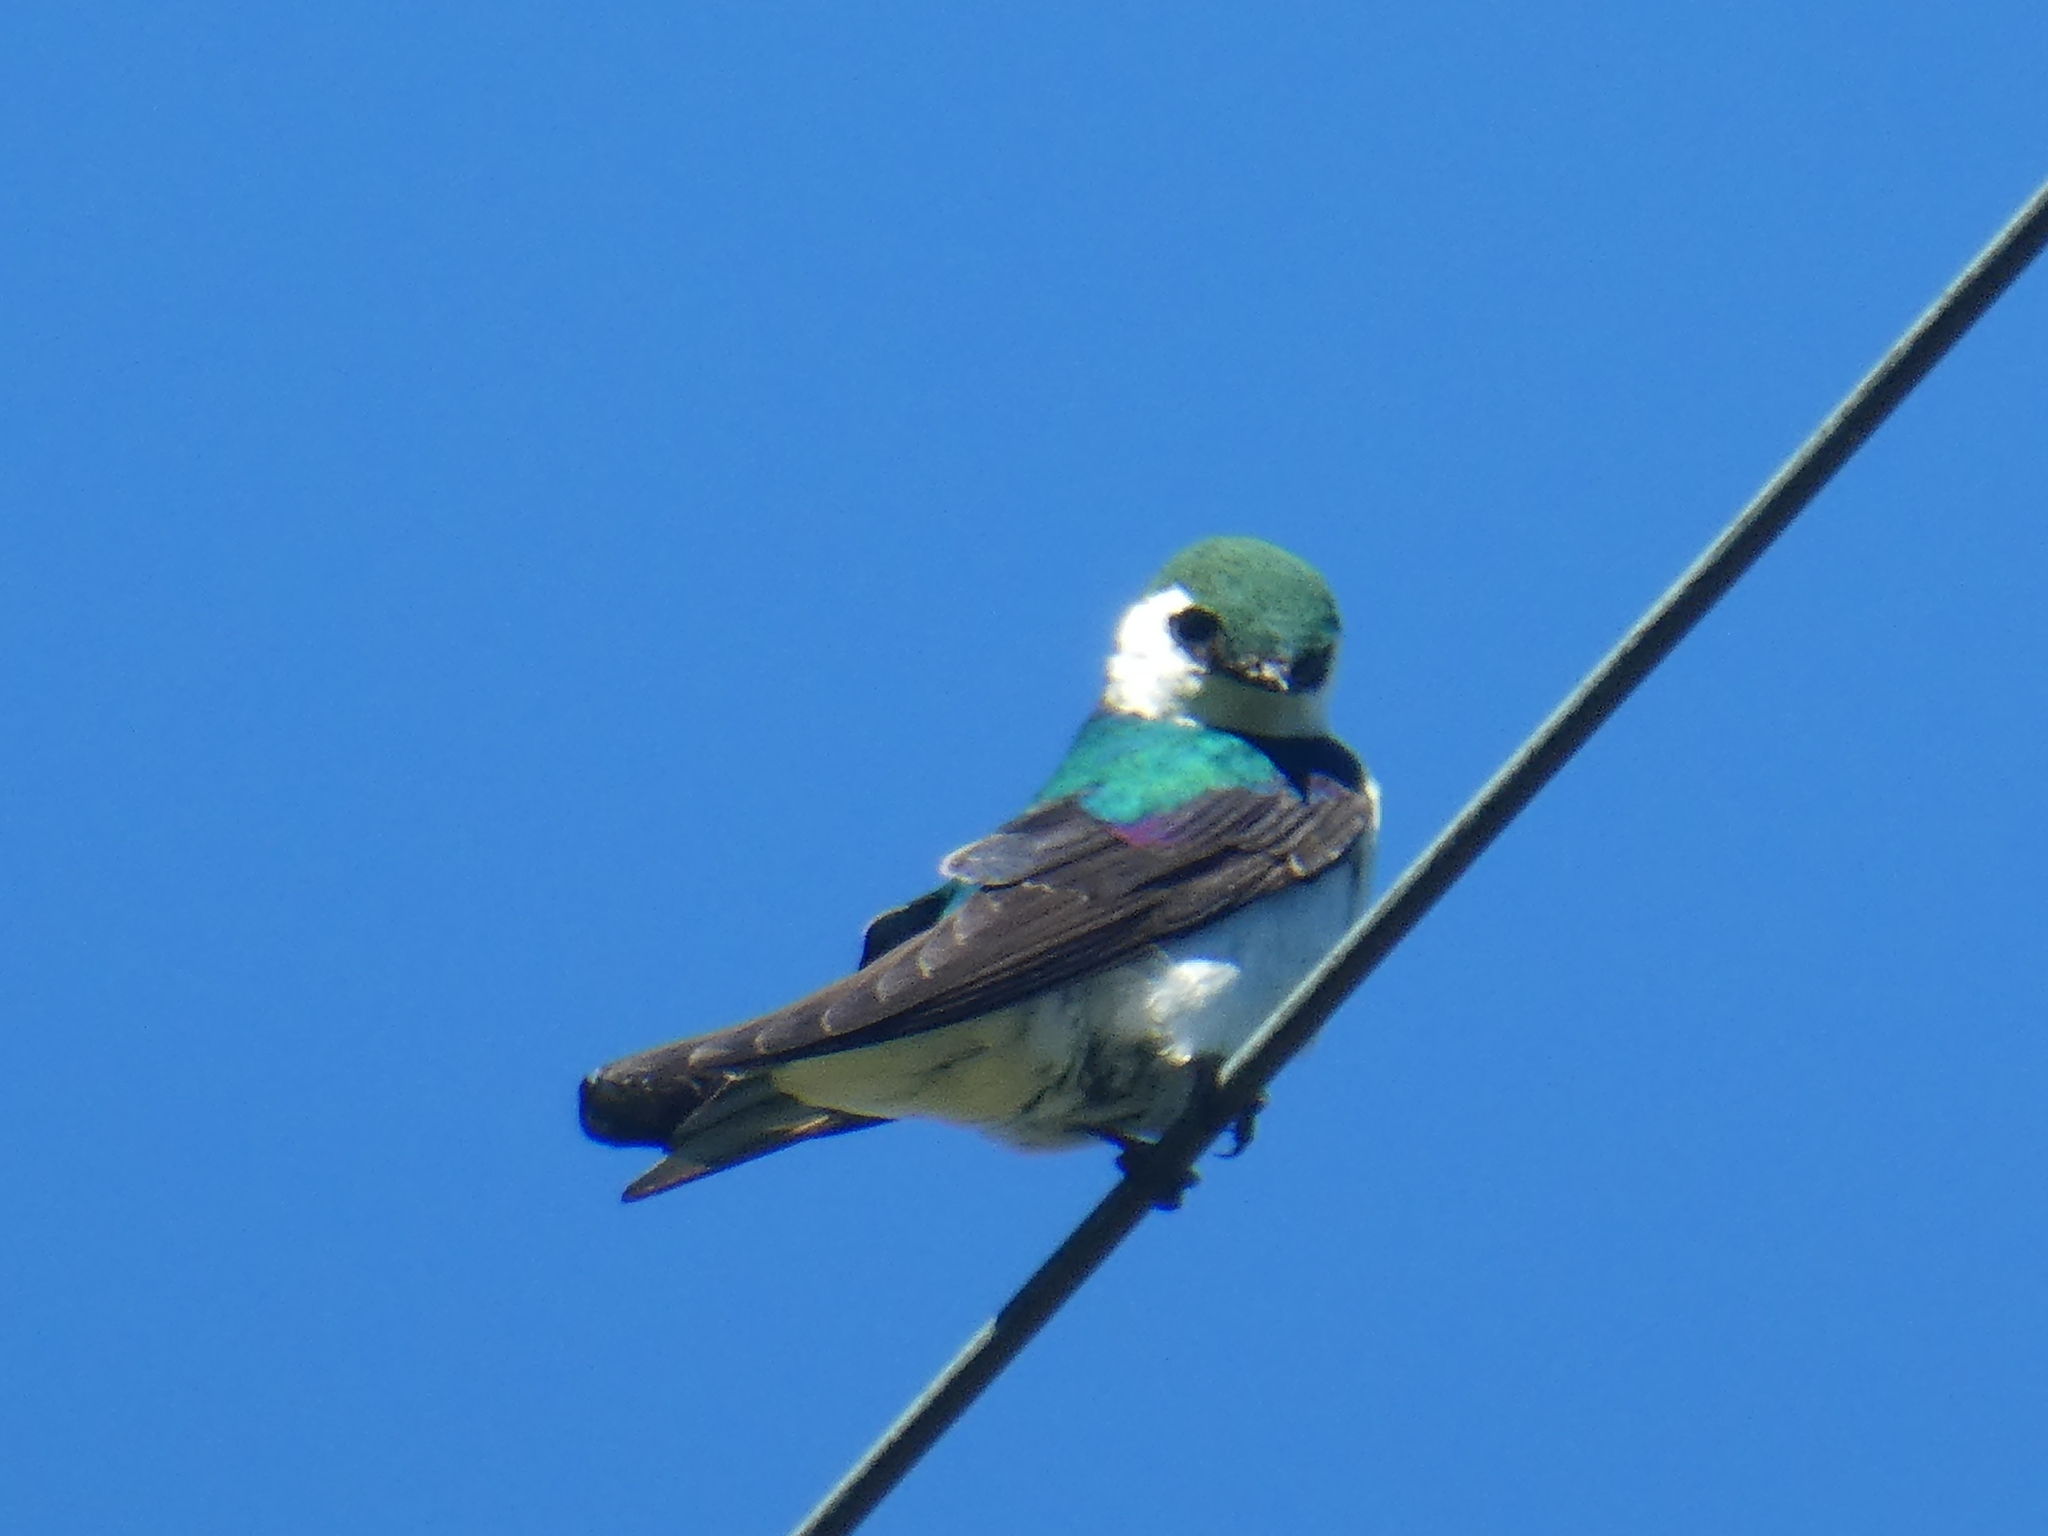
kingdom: Animalia
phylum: Chordata
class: Aves
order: Passeriformes
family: Hirundinidae
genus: Tachycineta
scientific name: Tachycineta thalassina
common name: Violet-green swallow
